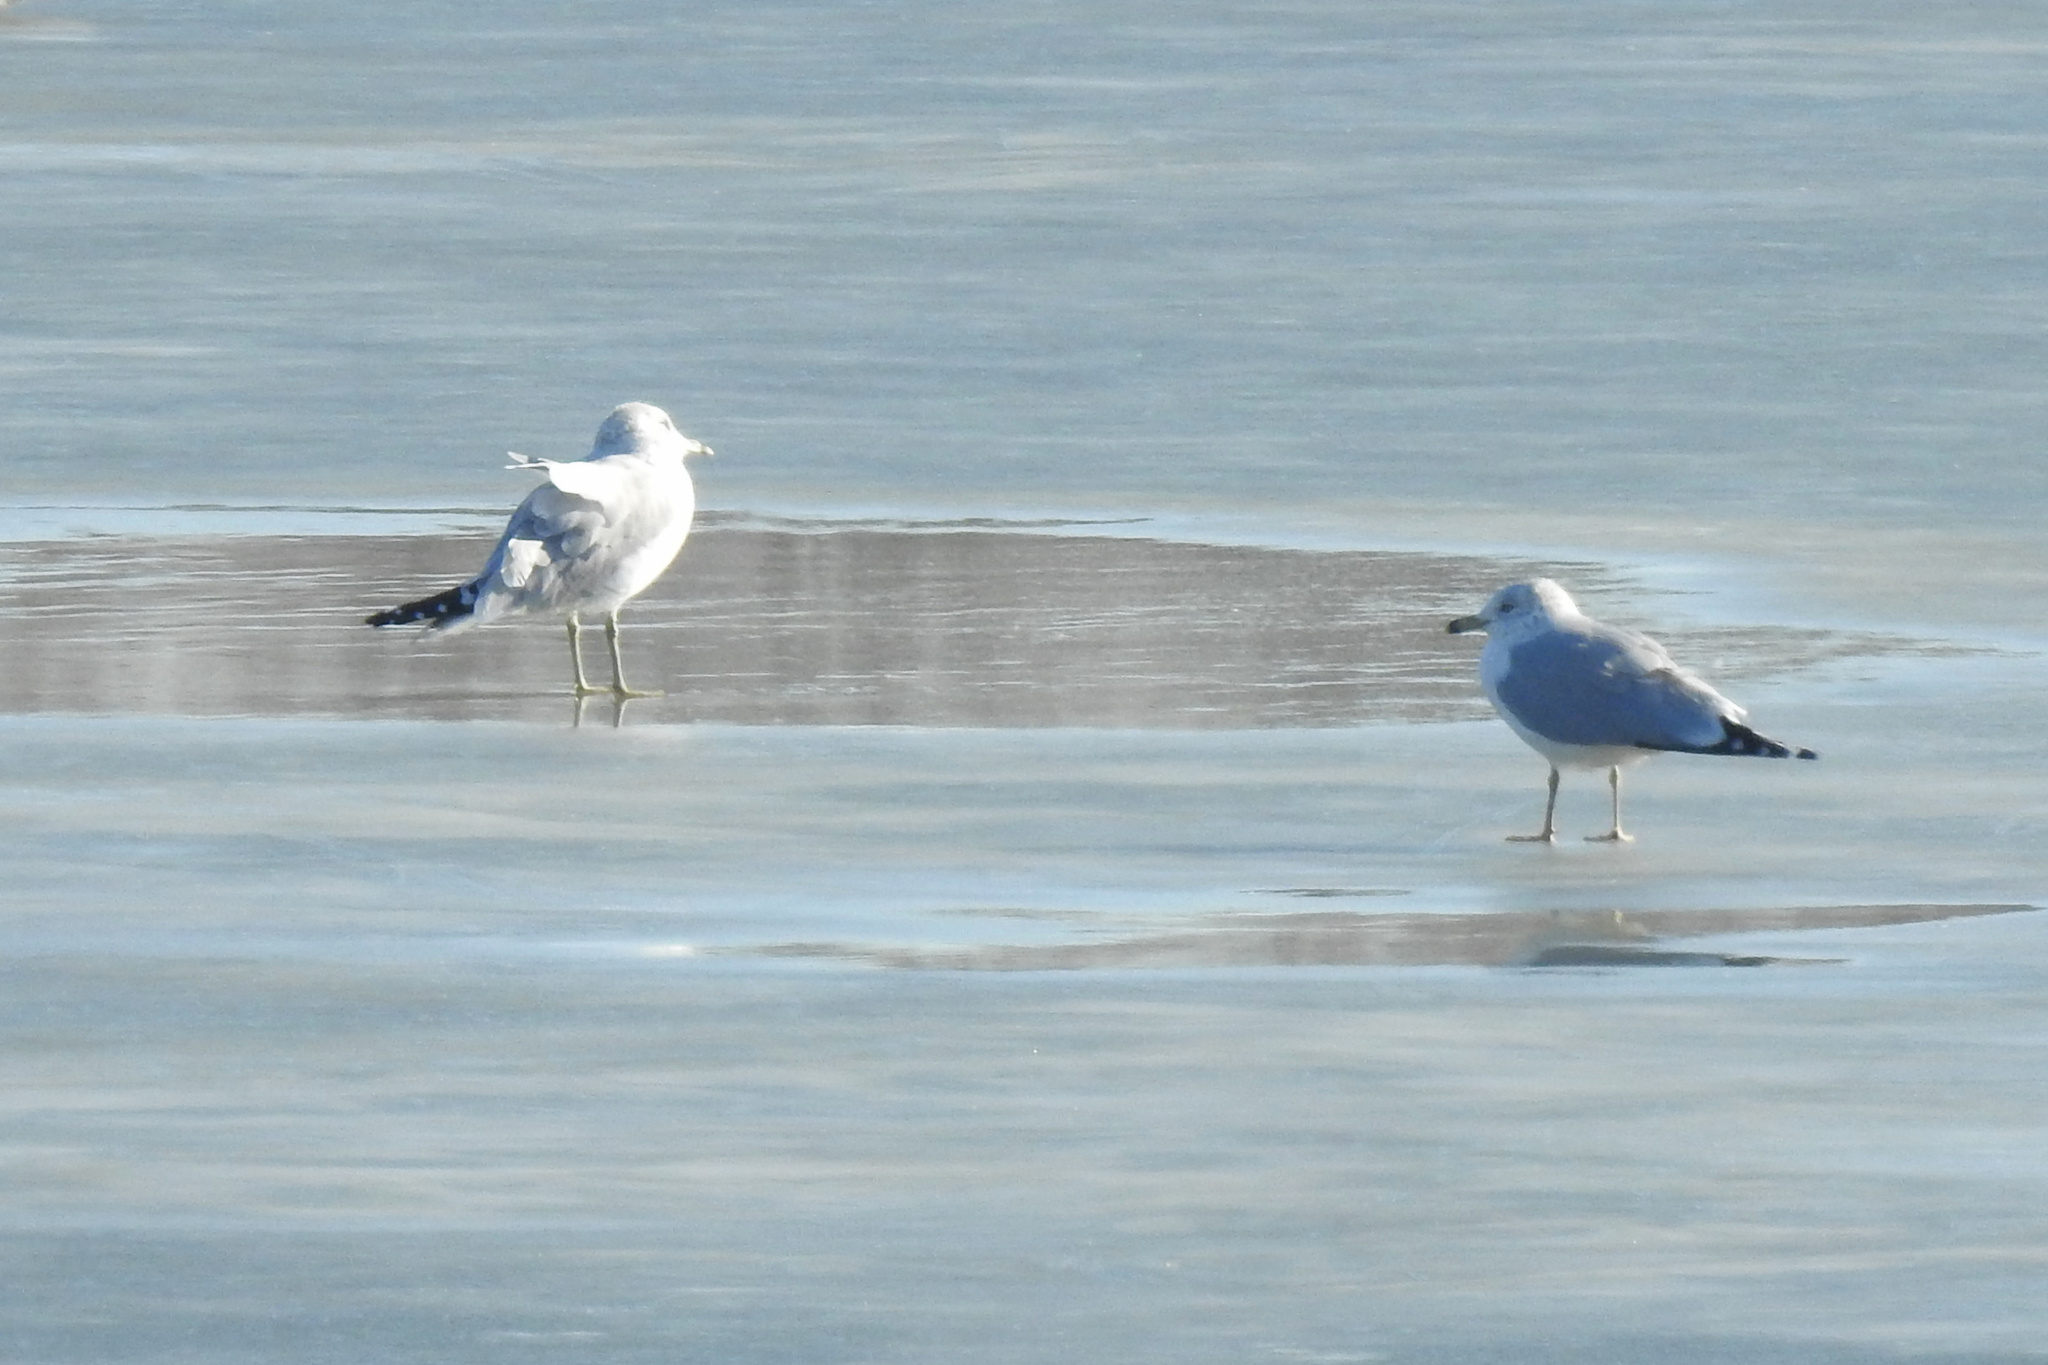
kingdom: Animalia
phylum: Chordata
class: Aves
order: Charadriiformes
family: Laridae
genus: Larus
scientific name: Larus delawarensis
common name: Ring-billed gull
